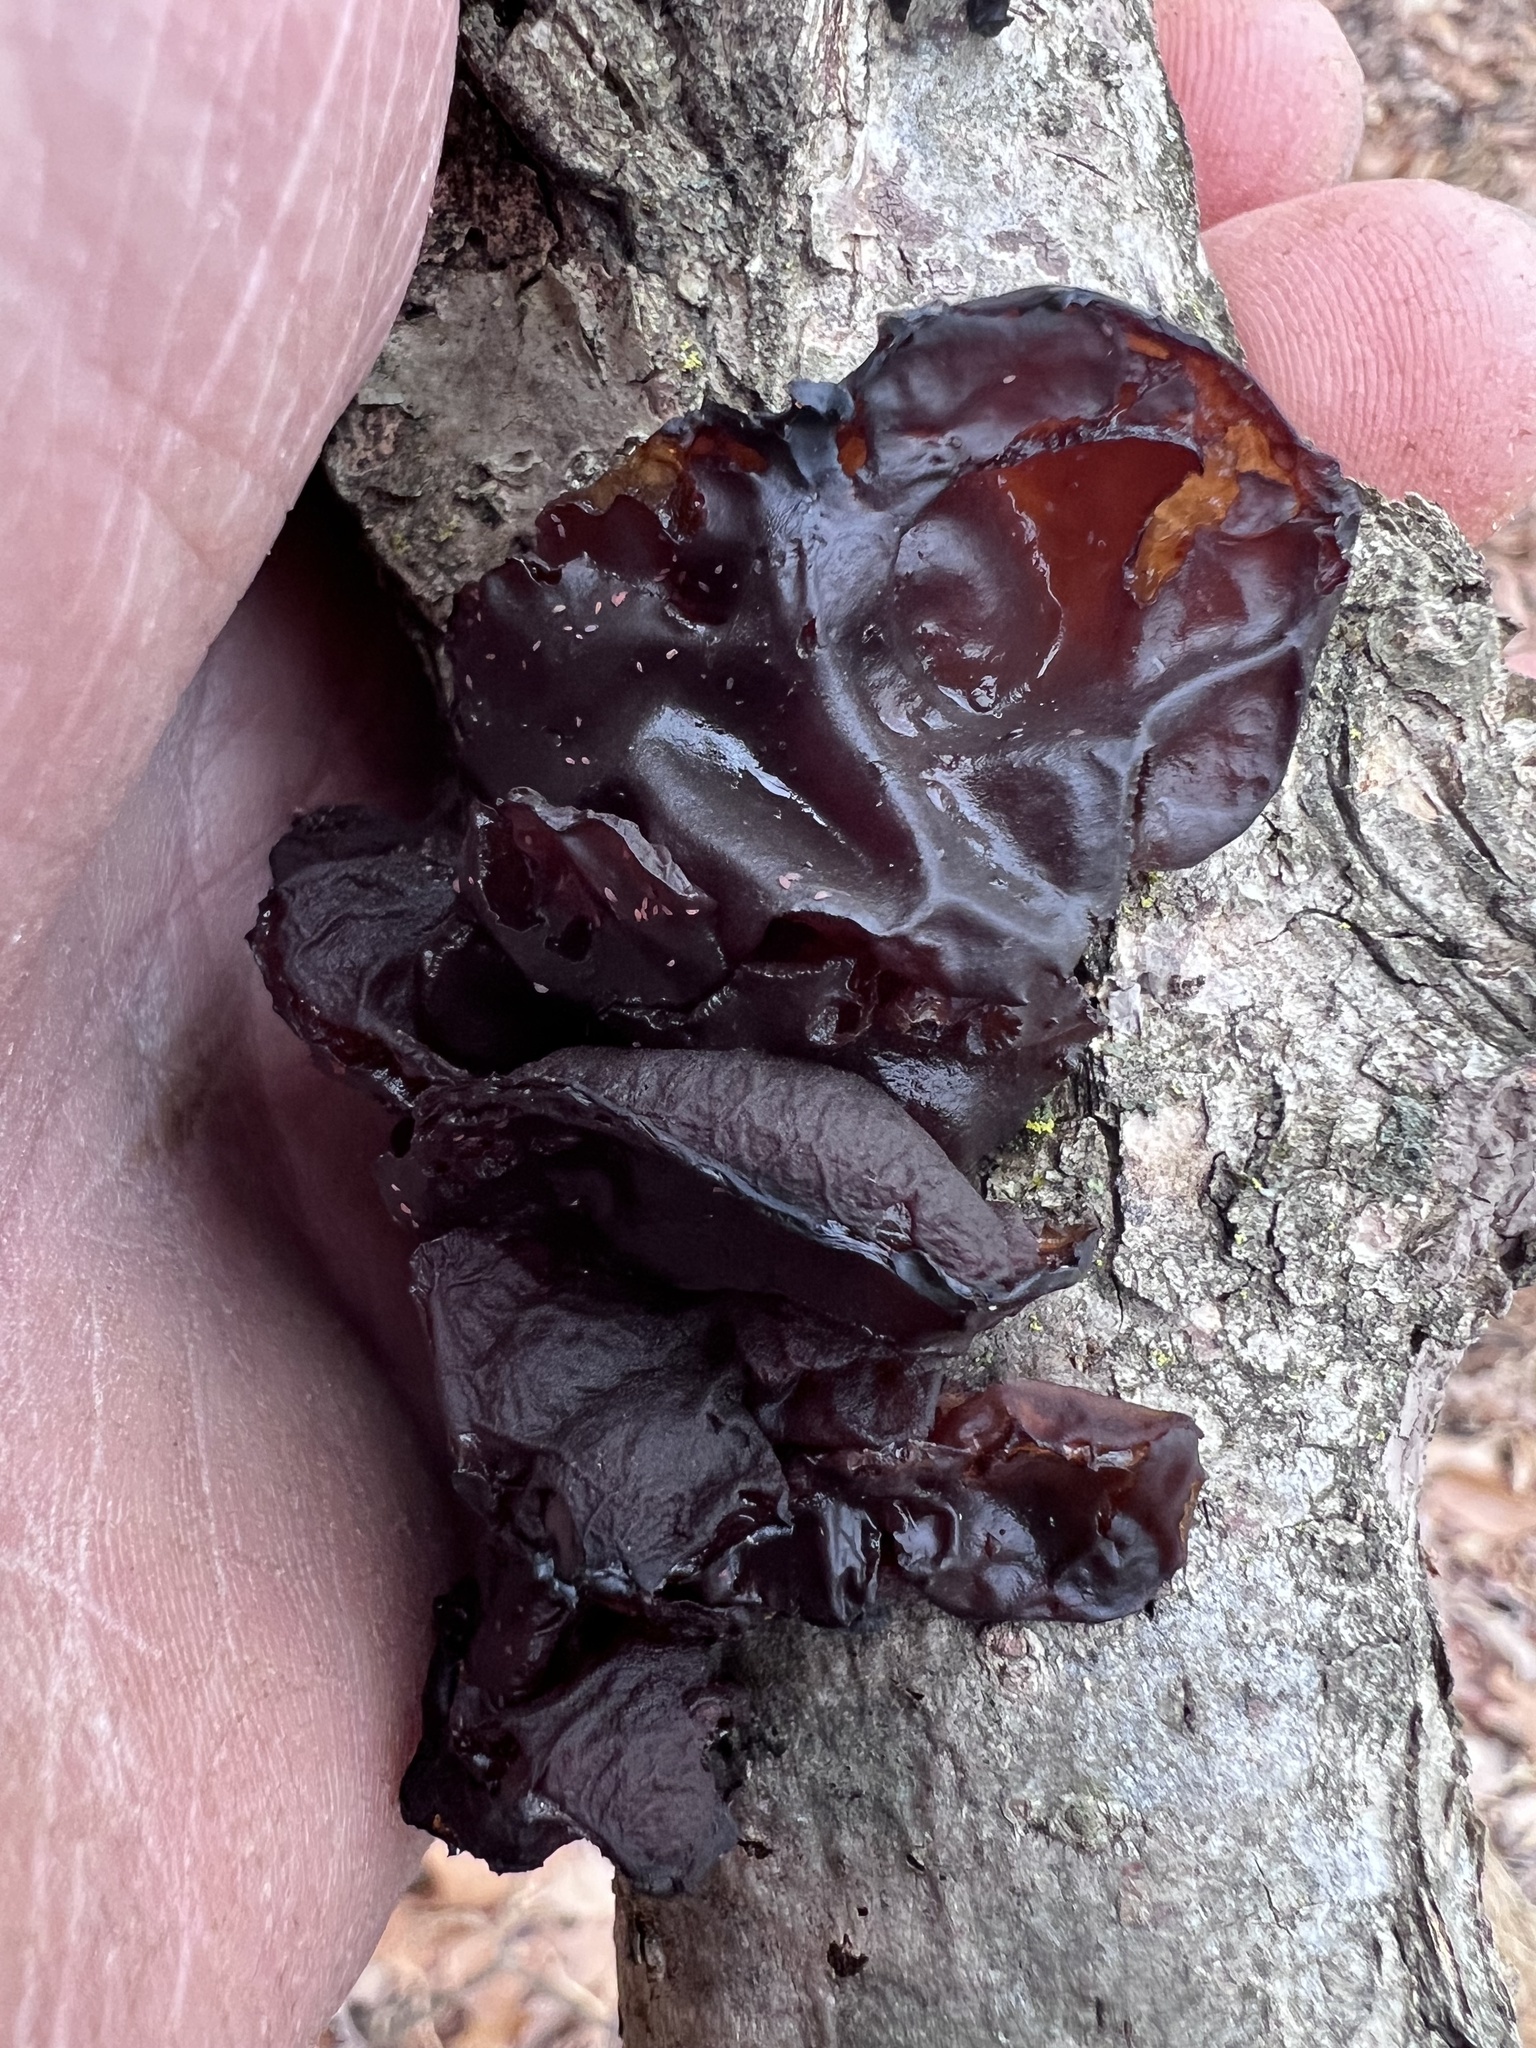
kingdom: Fungi
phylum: Basidiomycota
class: Agaricomycetes
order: Auriculariales
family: Auriculariaceae
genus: Exidia
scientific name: Exidia
